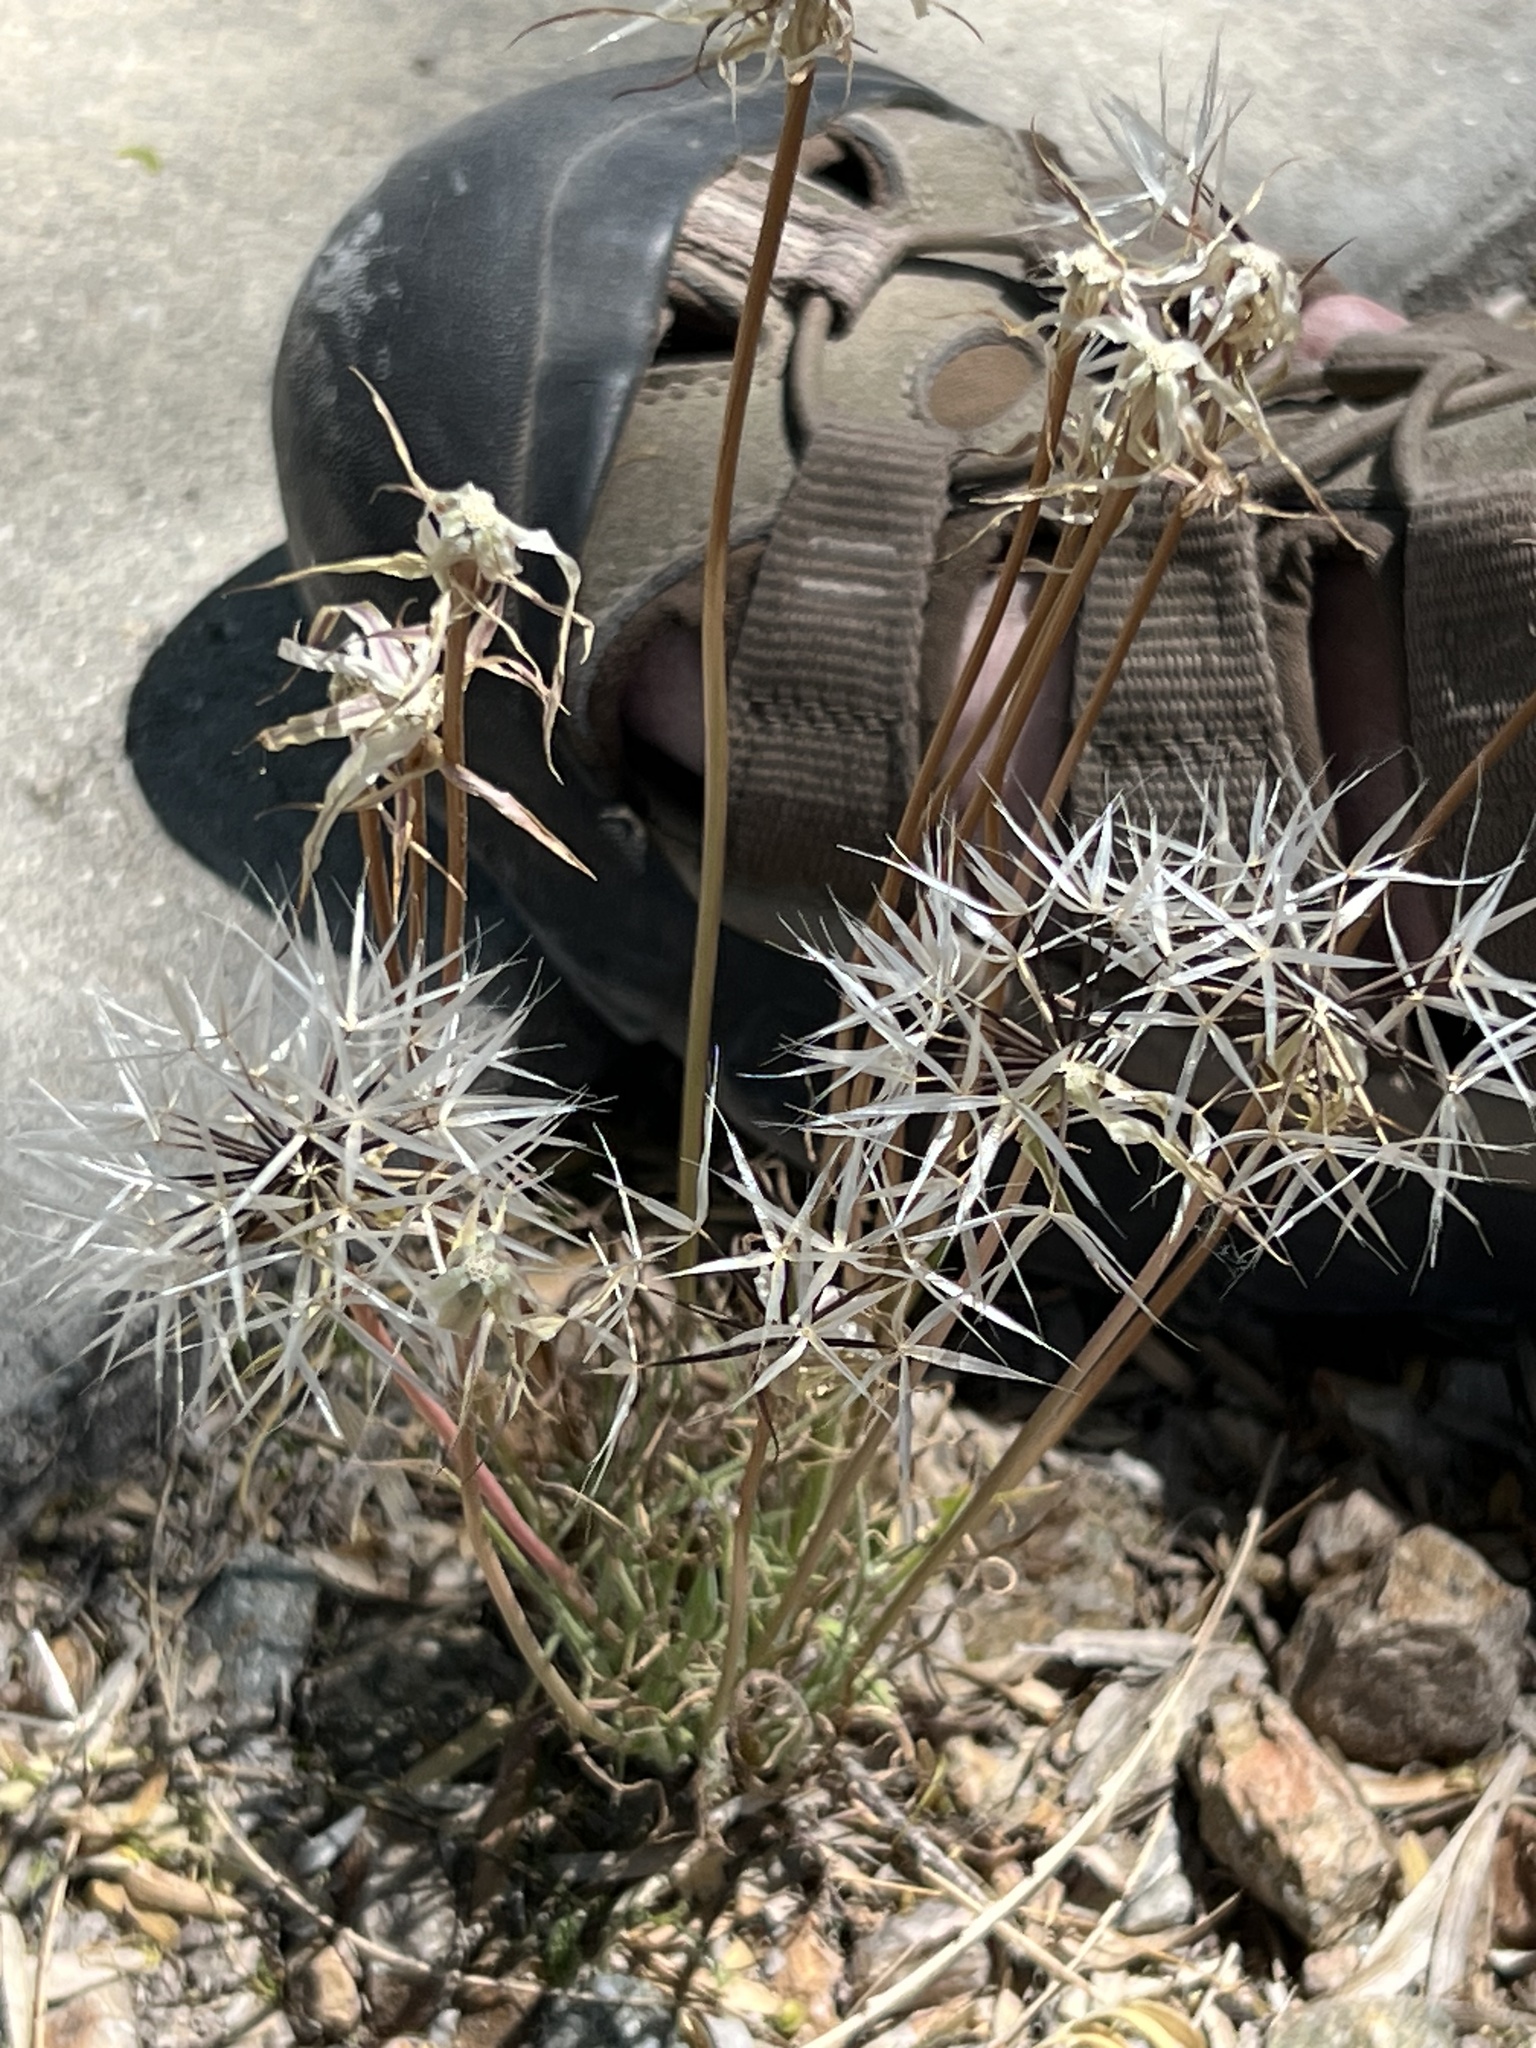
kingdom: Plantae
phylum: Tracheophyta
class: Magnoliopsida
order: Asterales
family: Asteraceae
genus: Microseris
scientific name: Microseris lindleyi
